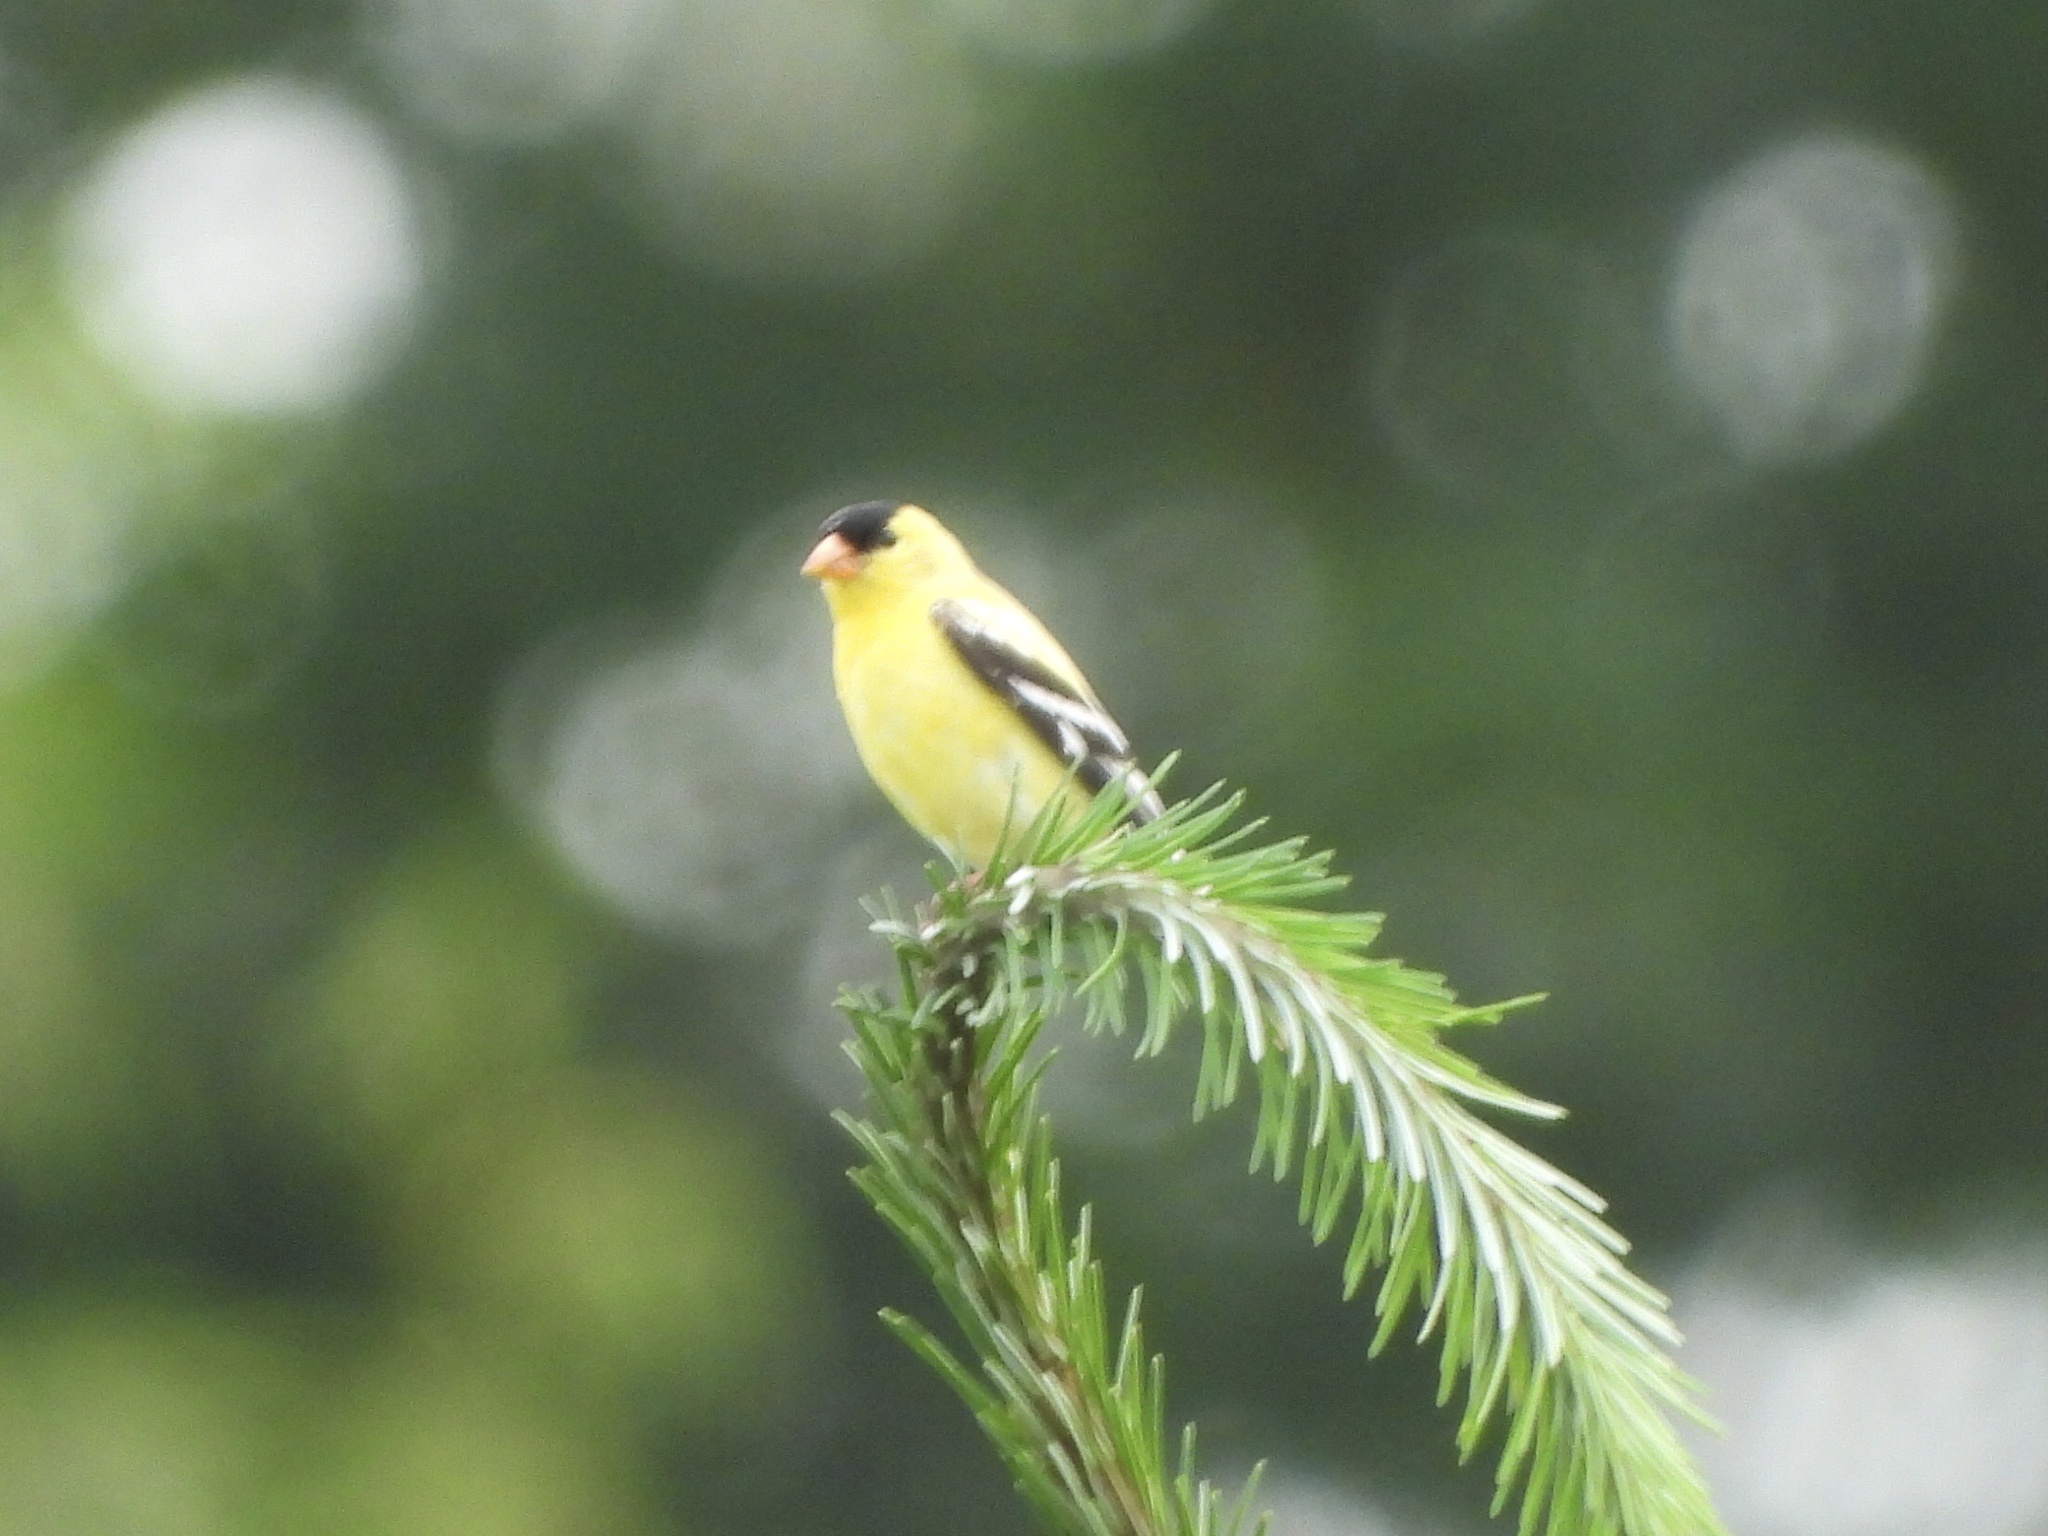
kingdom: Animalia
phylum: Chordata
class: Aves
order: Passeriformes
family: Fringillidae
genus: Spinus
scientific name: Spinus tristis
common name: American goldfinch
